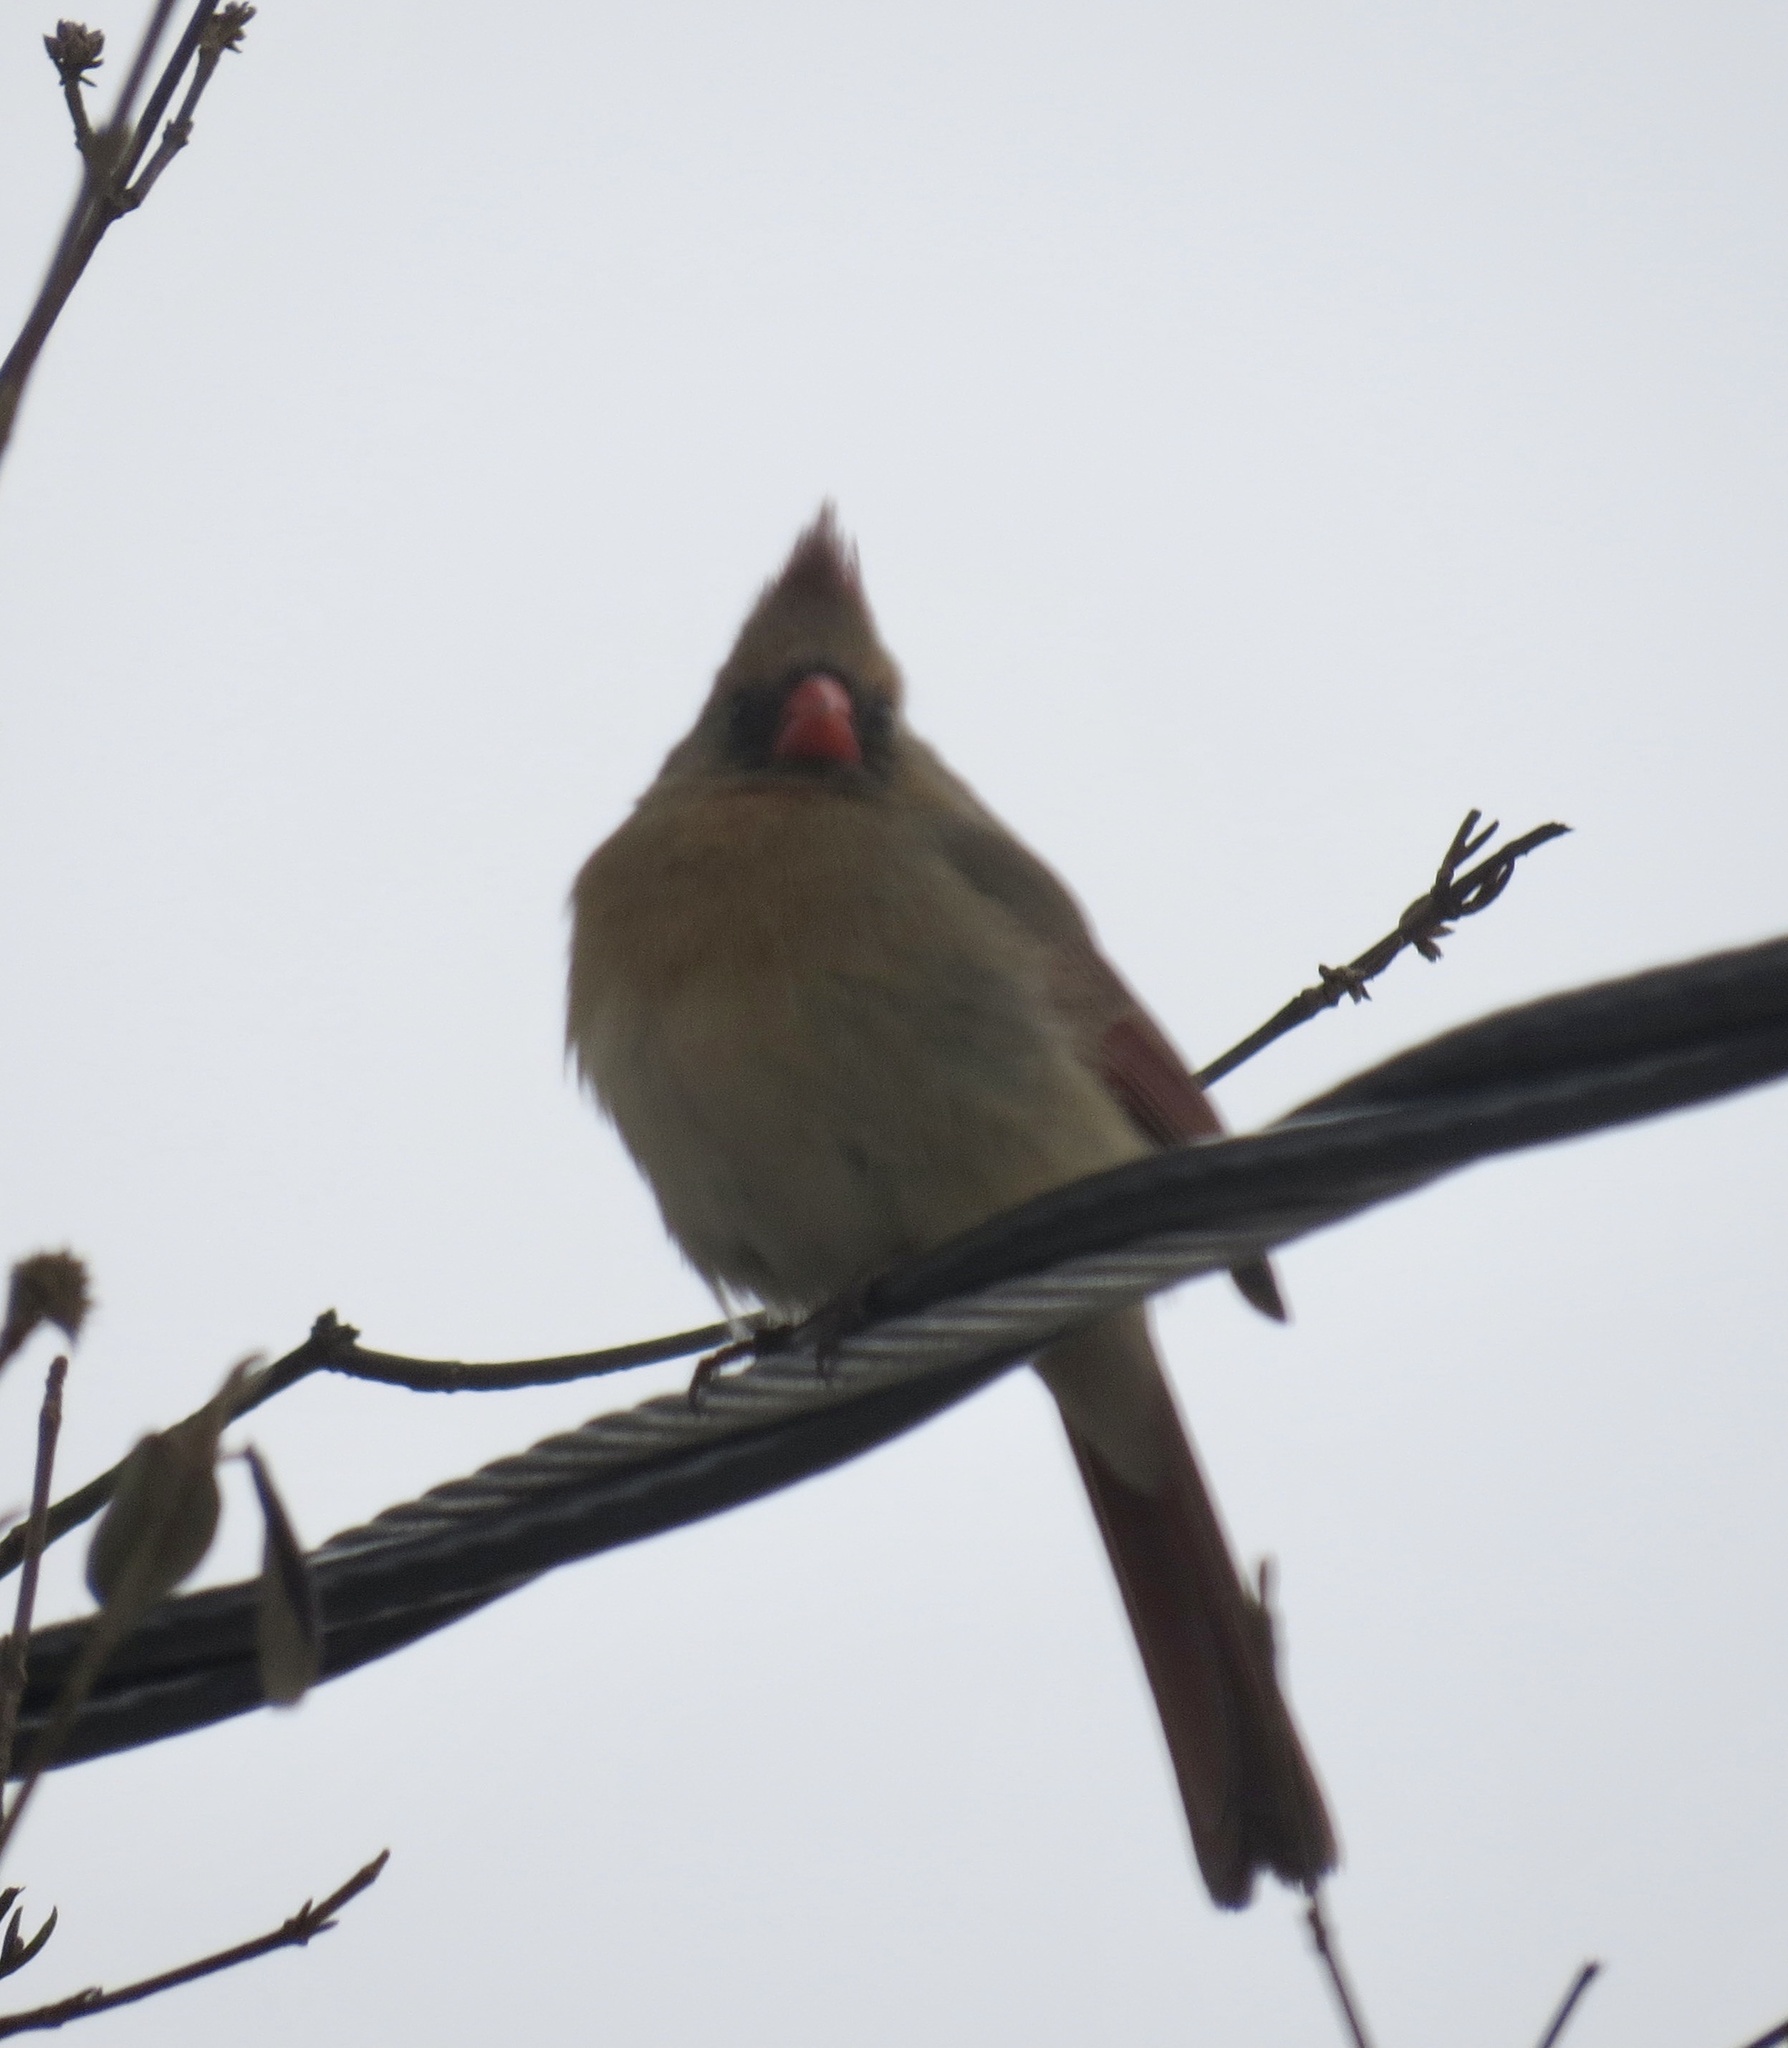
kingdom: Animalia
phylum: Chordata
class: Aves
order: Passeriformes
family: Cardinalidae
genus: Cardinalis
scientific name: Cardinalis cardinalis
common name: Northern cardinal
